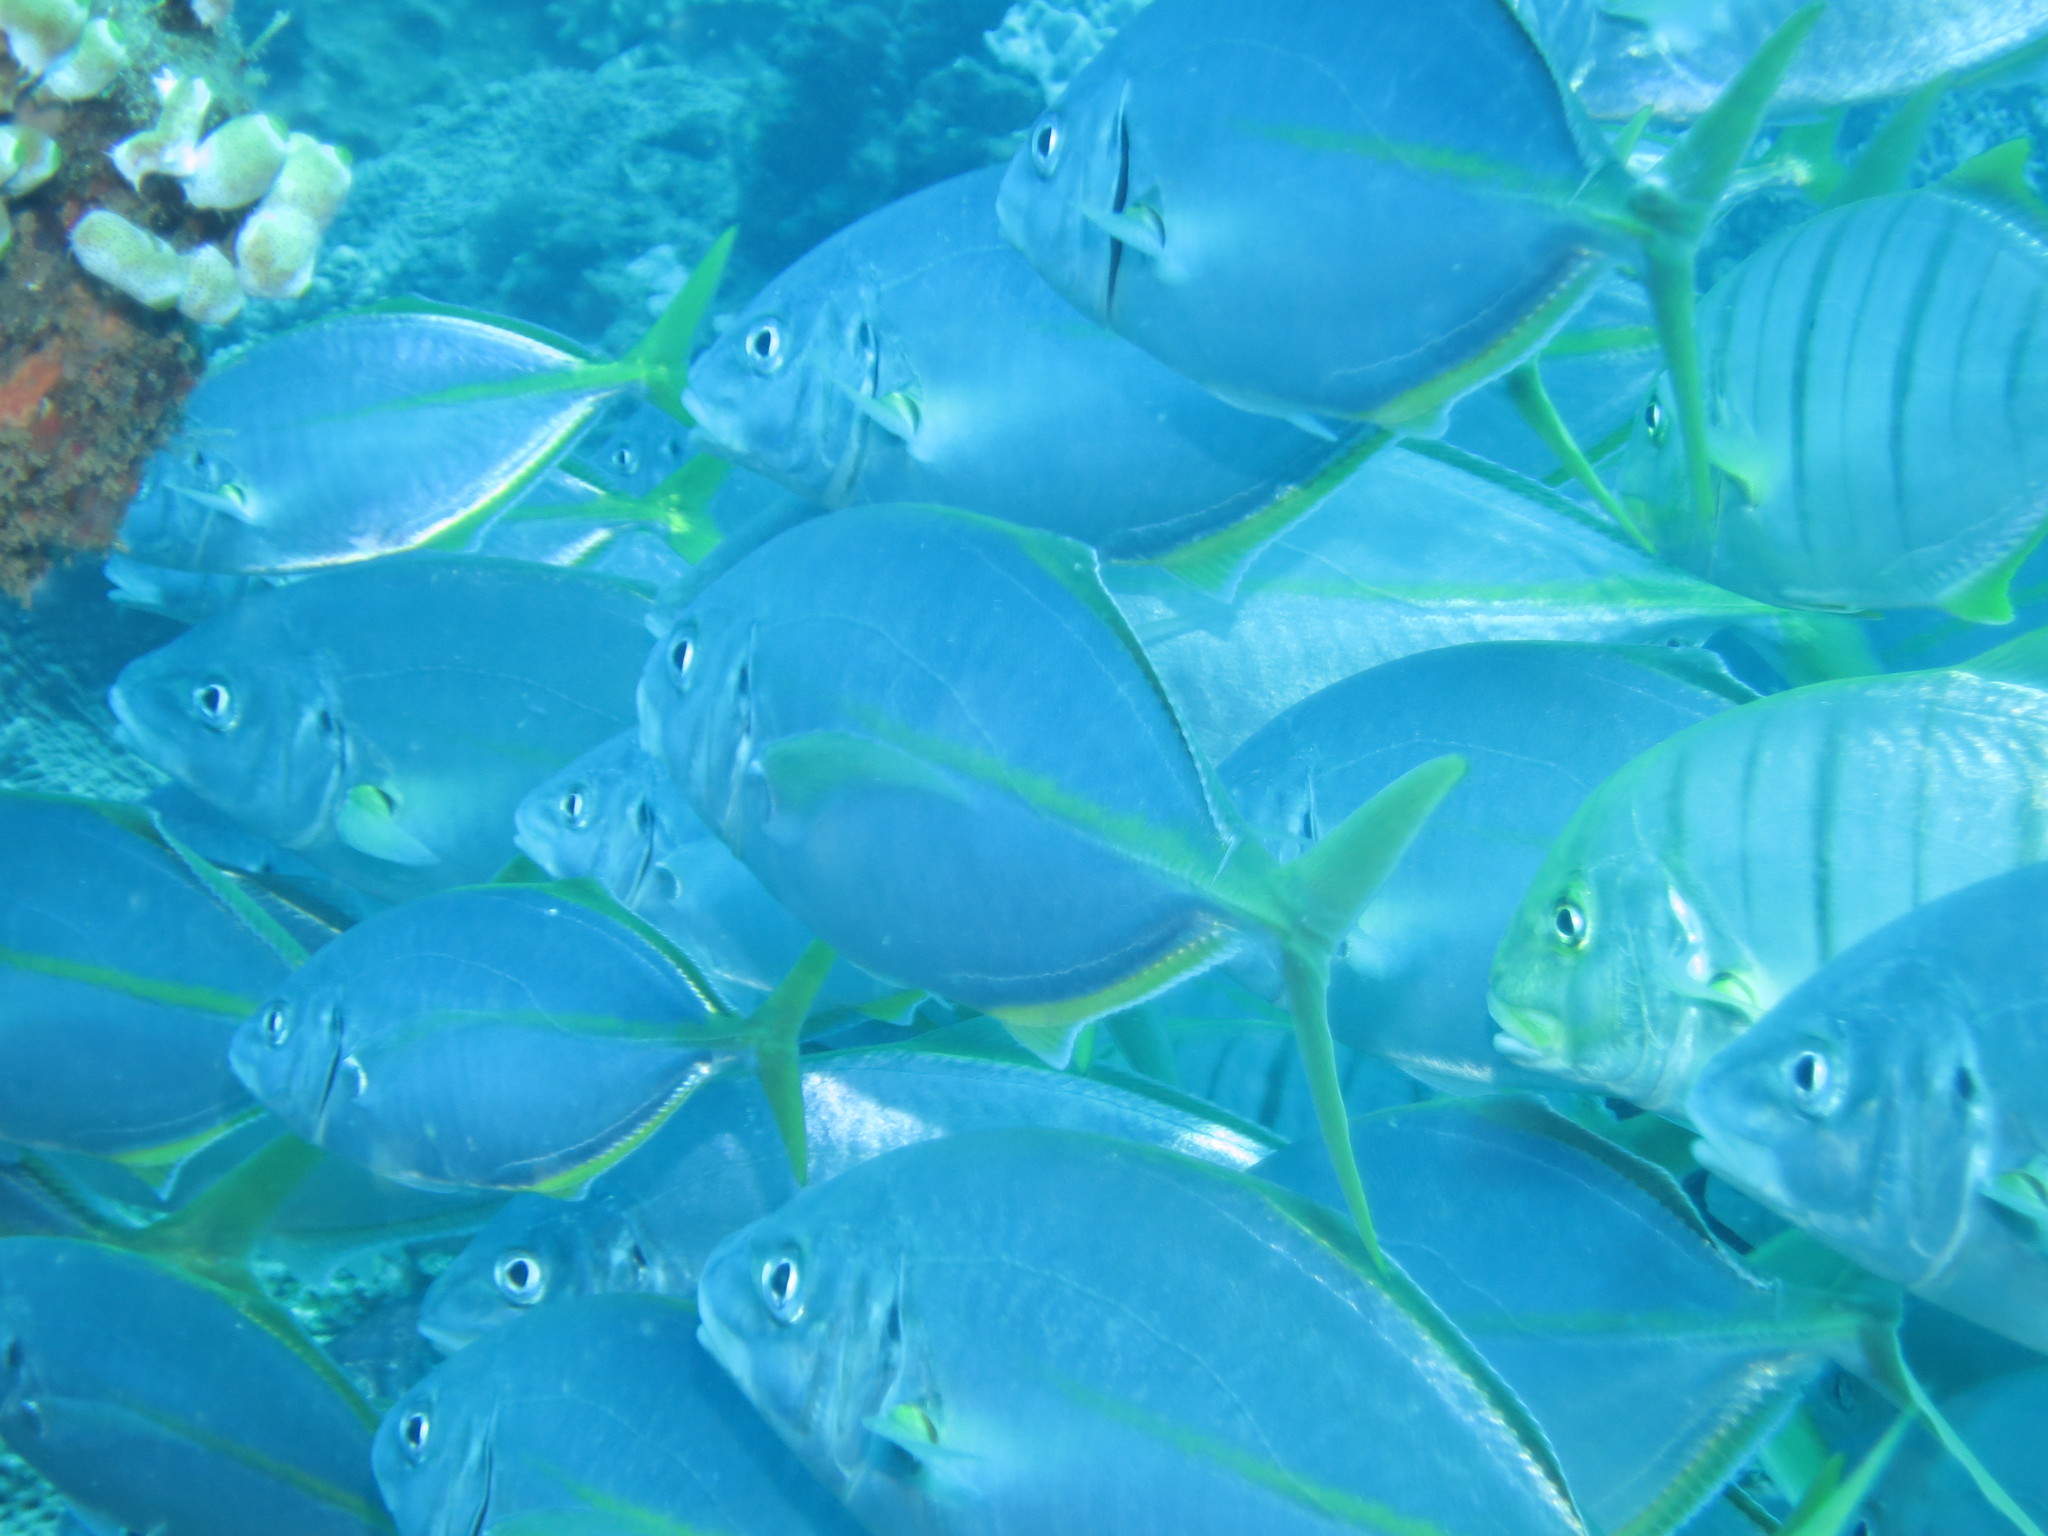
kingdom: Animalia
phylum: Chordata
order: Perciformes
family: Carangidae
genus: Pseudocaranx
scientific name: Pseudocaranx dentex
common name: White trevally
